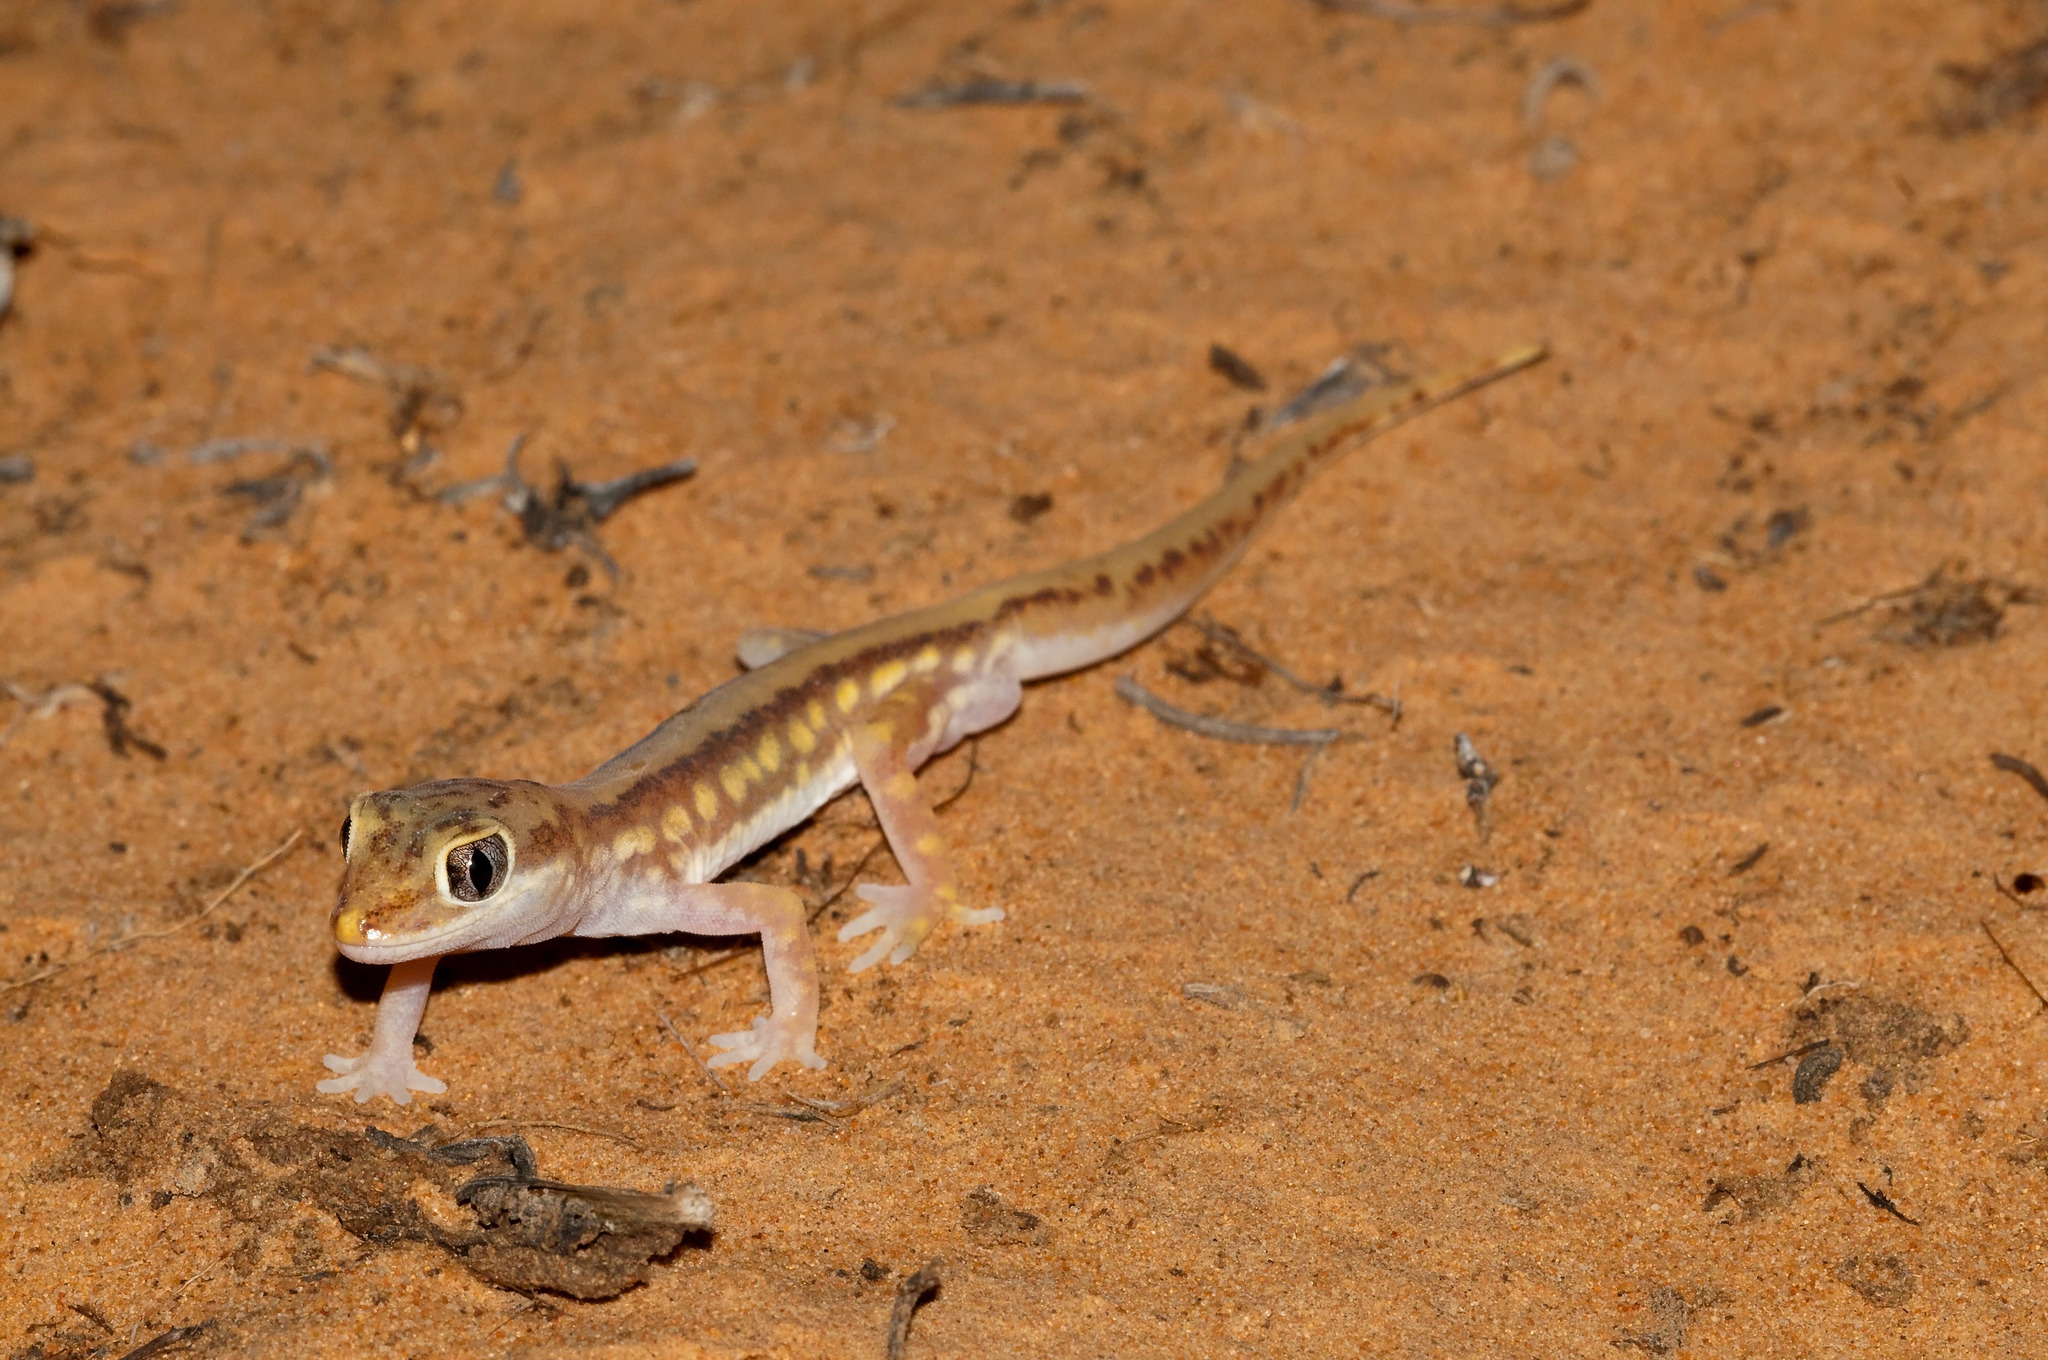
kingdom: Animalia
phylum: Chordata
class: Squamata
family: Diplodactylidae
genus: Lucasium
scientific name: Lucasium damaeum
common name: Beaded gecko
